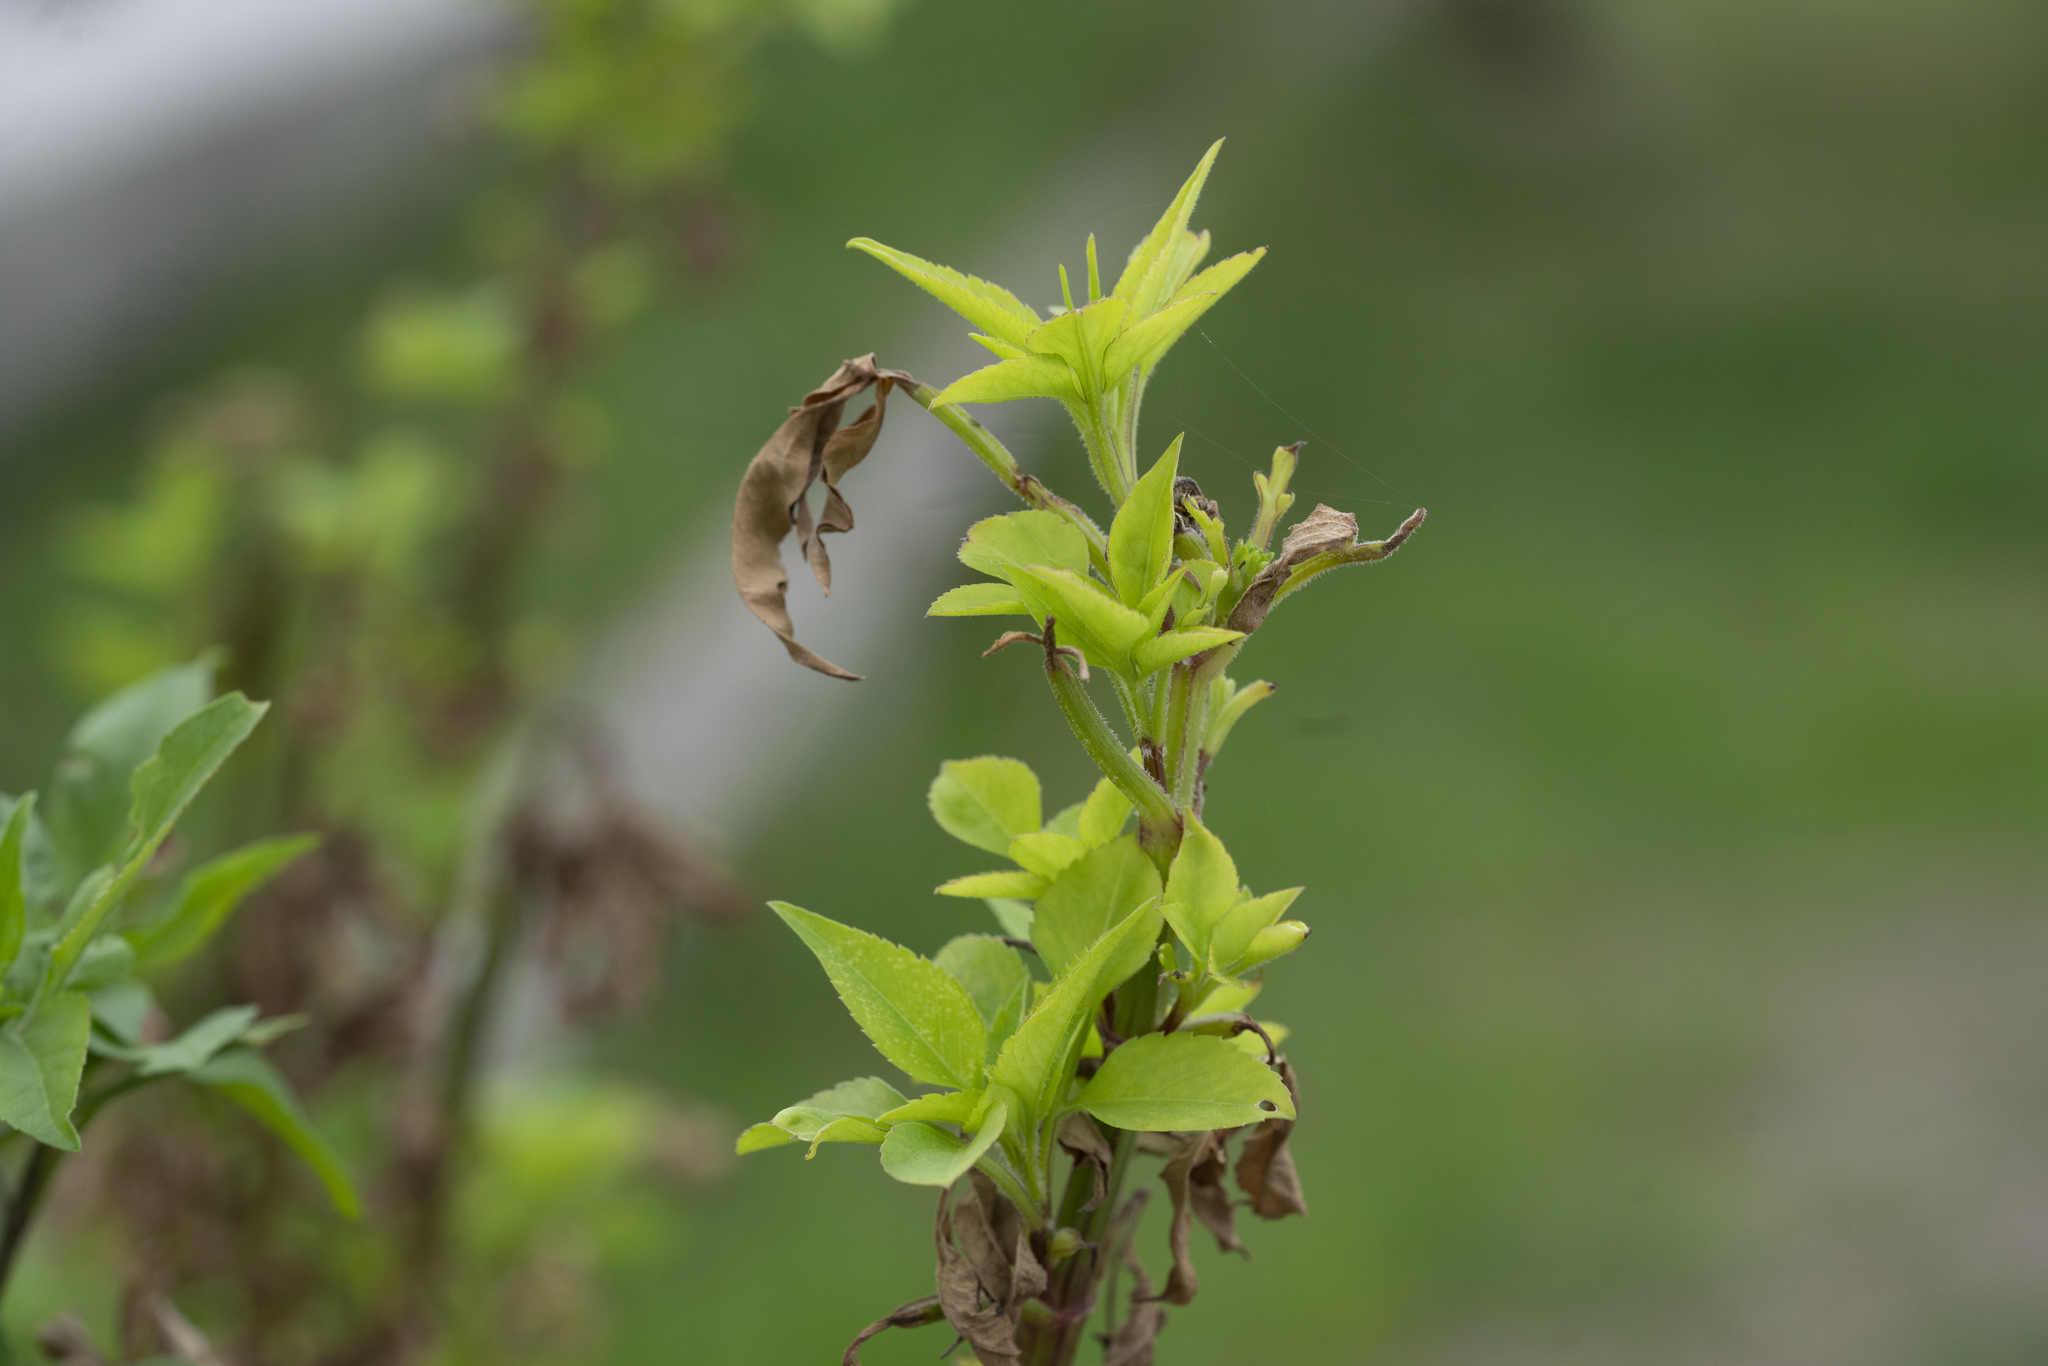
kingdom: Plantae
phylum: Tracheophyta
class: Magnoliopsida
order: Asterales
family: Asteraceae
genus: Bidens
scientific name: Bidens alba
